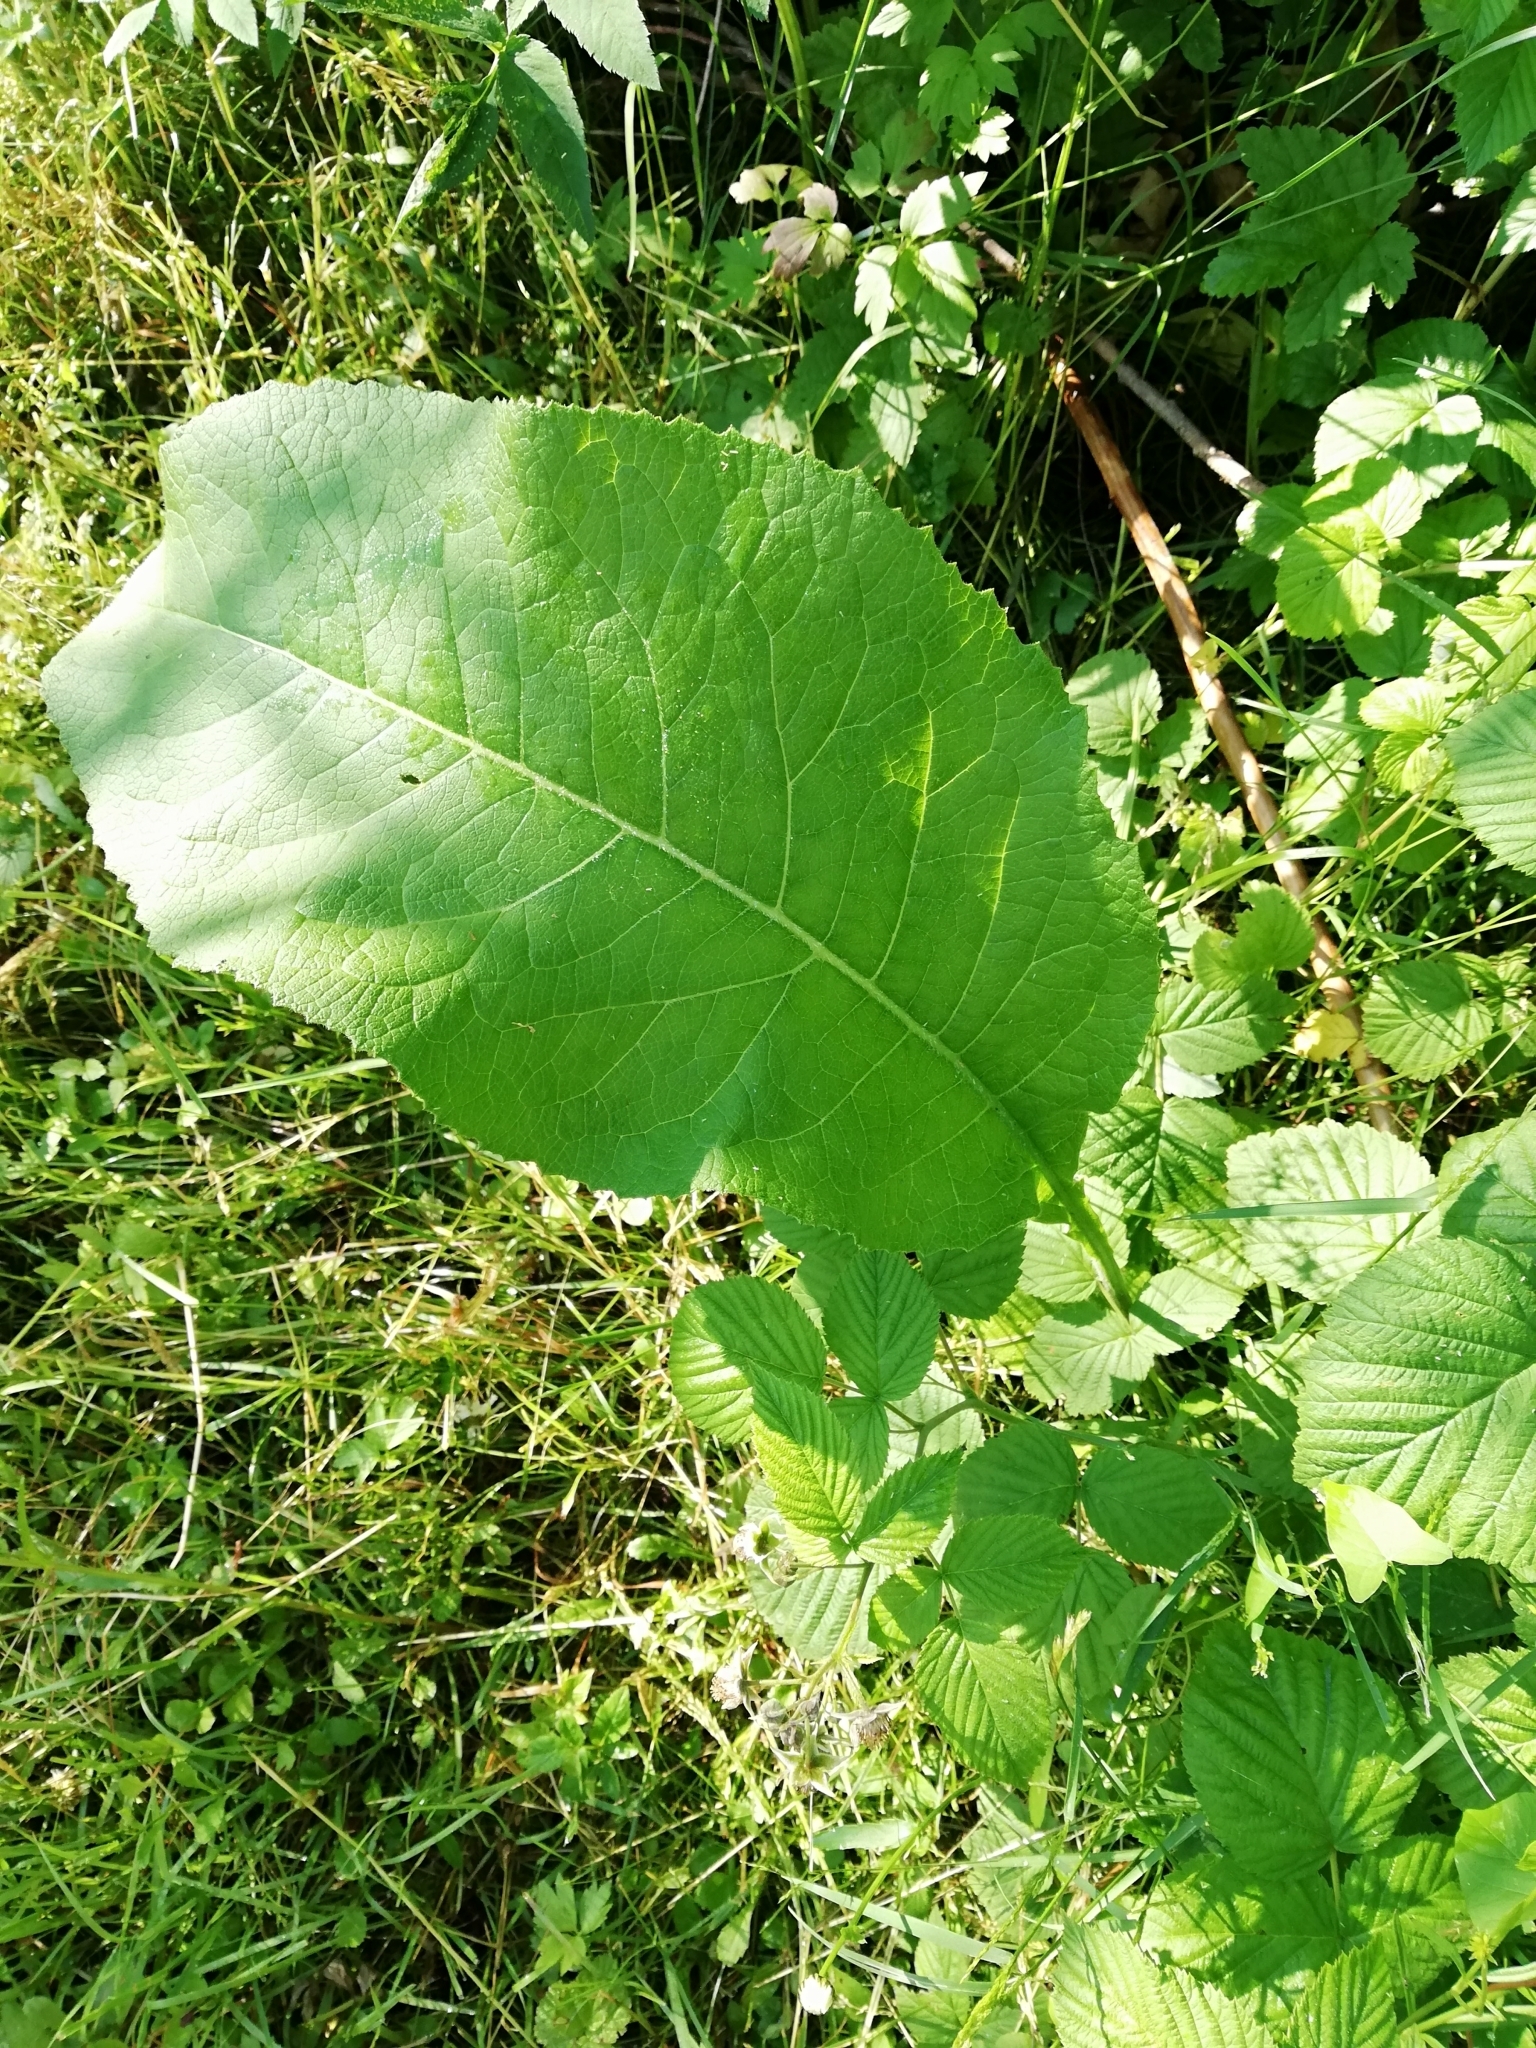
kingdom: Plantae
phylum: Tracheophyta
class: Magnoliopsida
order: Asterales
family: Asteraceae
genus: Inula
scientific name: Inula helenium
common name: Elecampane
